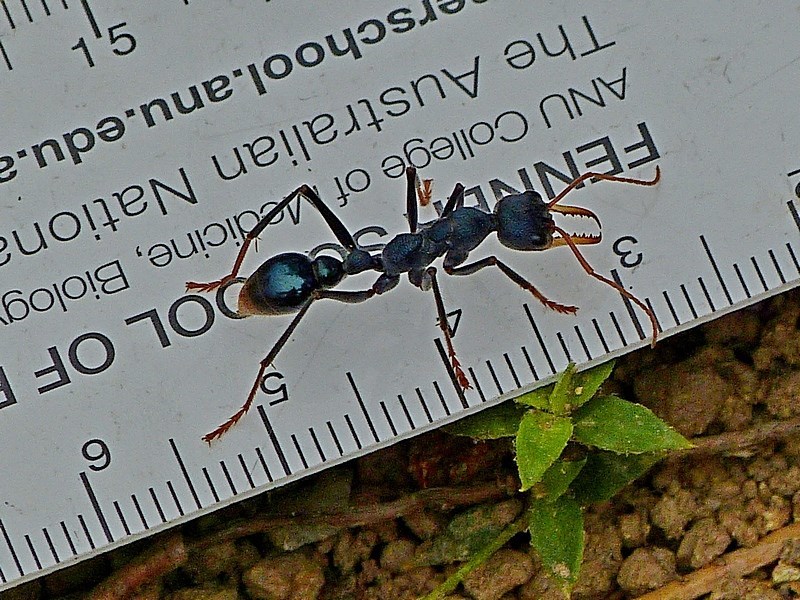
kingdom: Animalia
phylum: Arthropoda
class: Insecta
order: Hymenoptera
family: Formicidae
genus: Myrmecia
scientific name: Myrmecia tarsata
